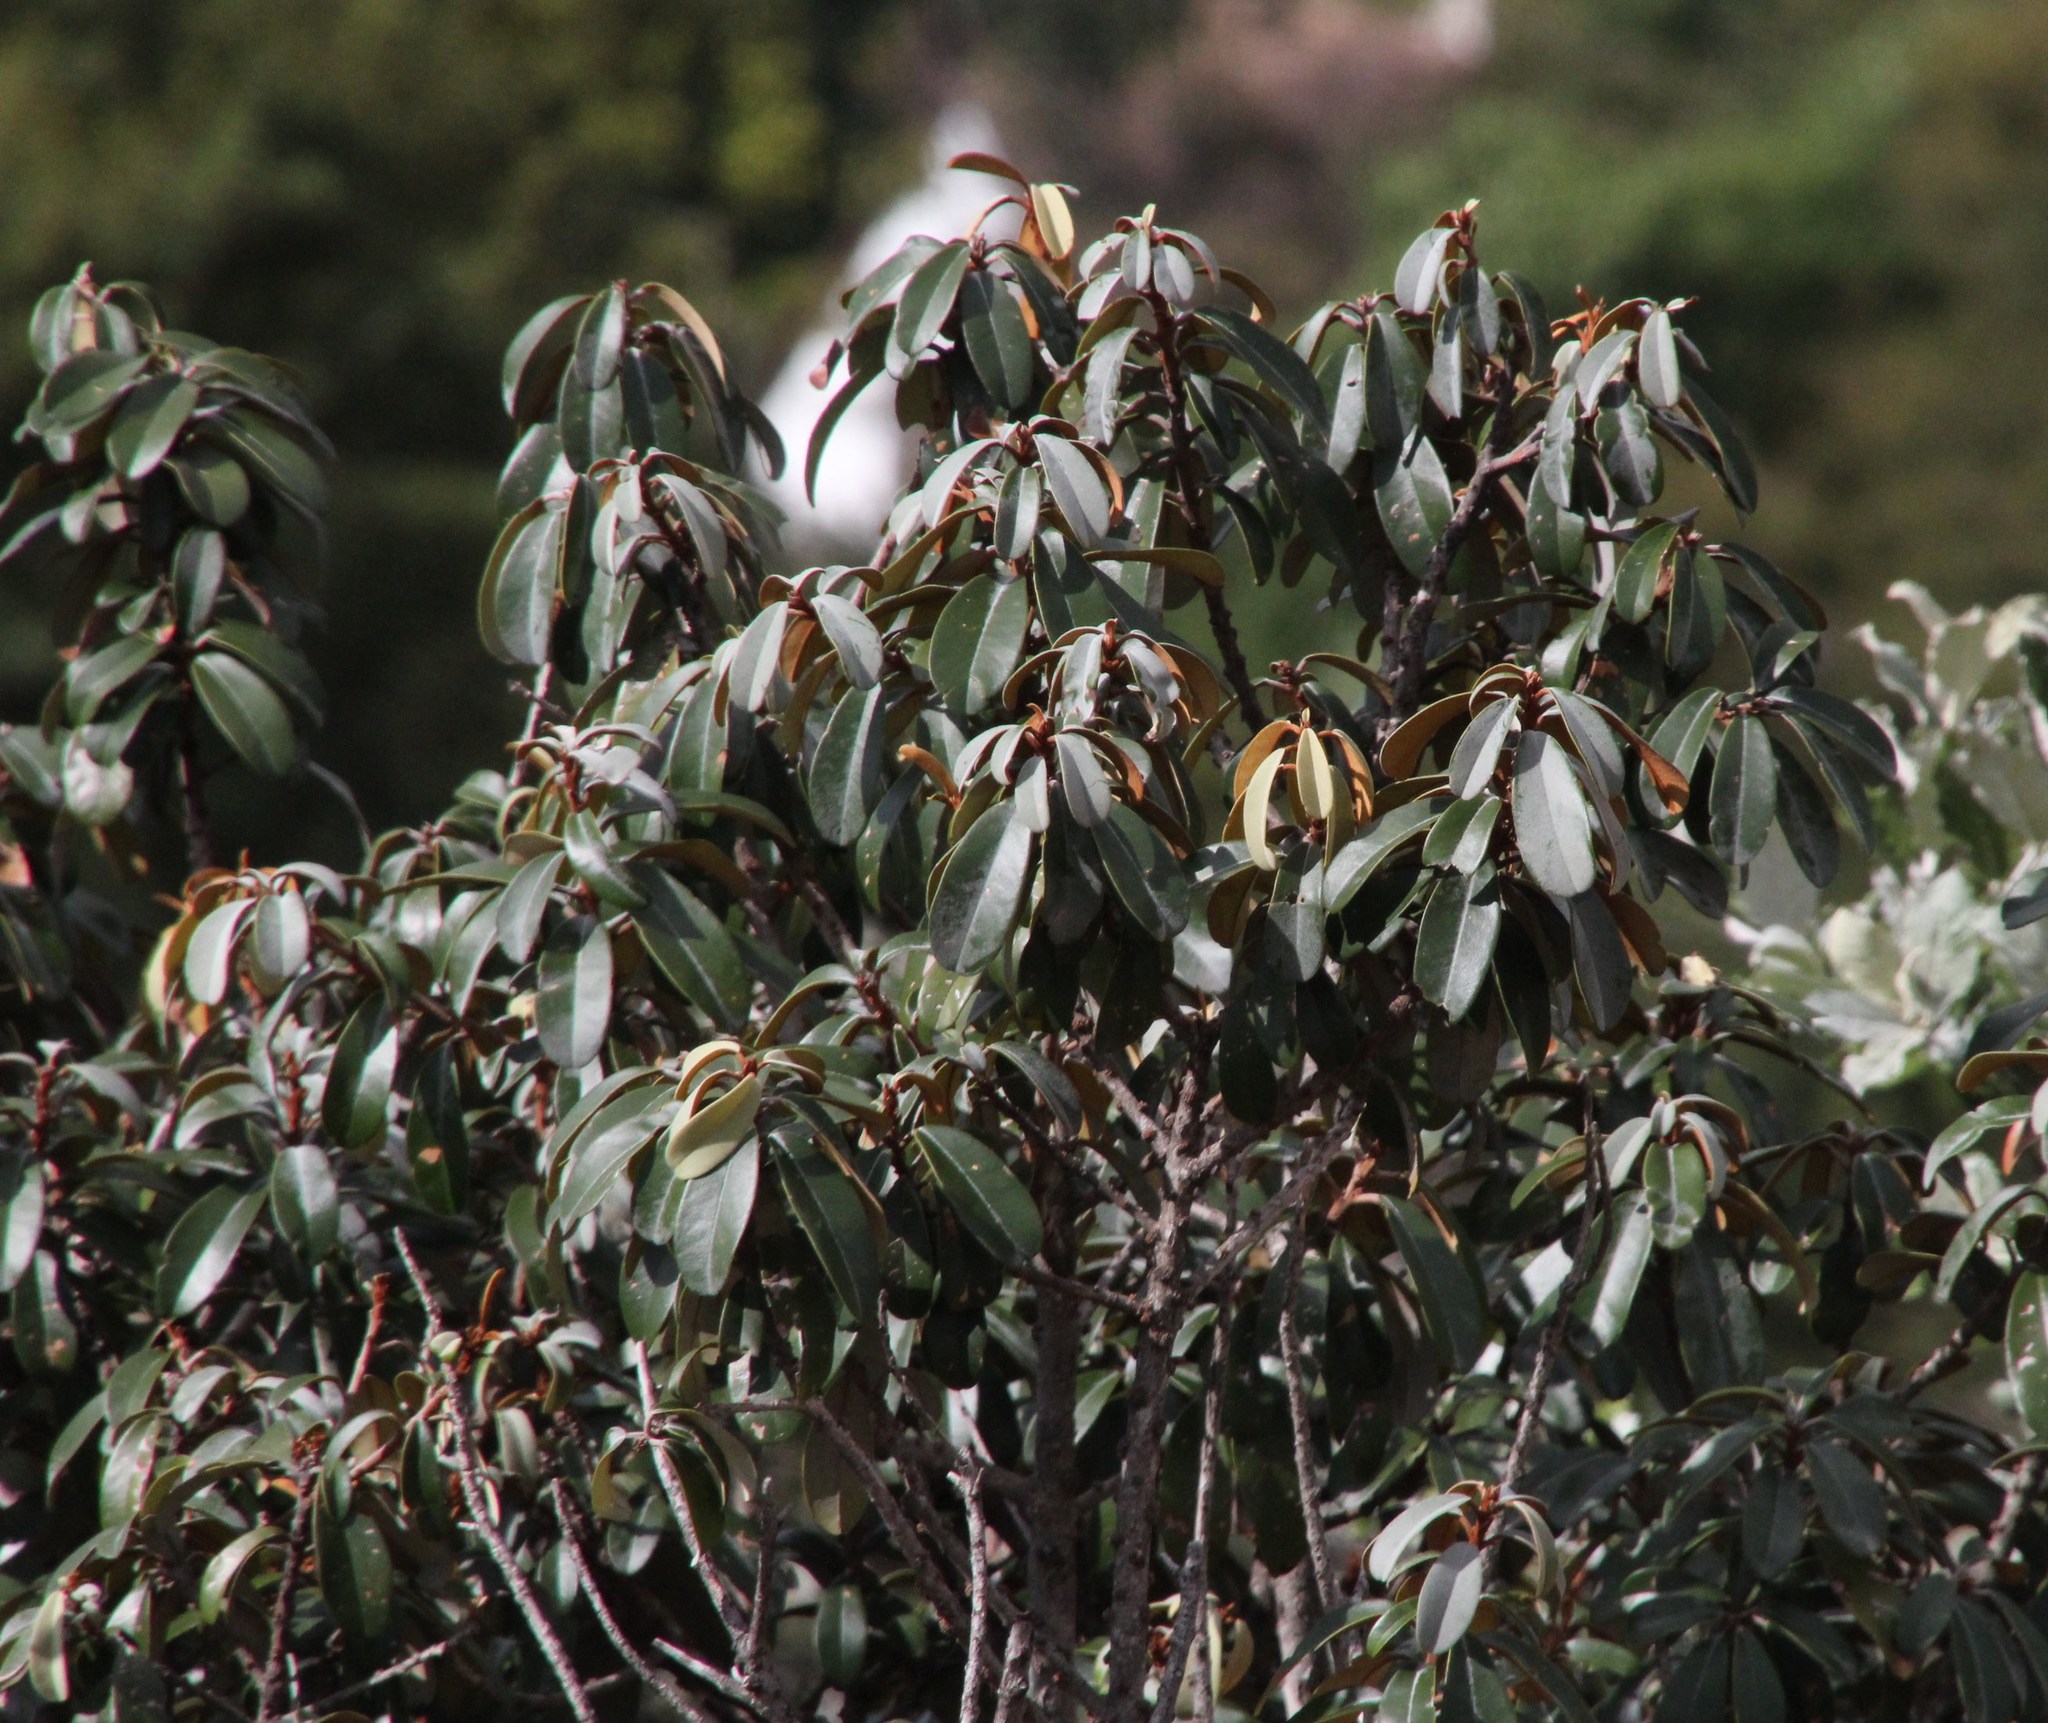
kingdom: Plantae
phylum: Tracheophyta
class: Magnoliopsida
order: Ericales
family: Sapotaceae
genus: Englerophytum
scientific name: Englerophytum magalismontanum
